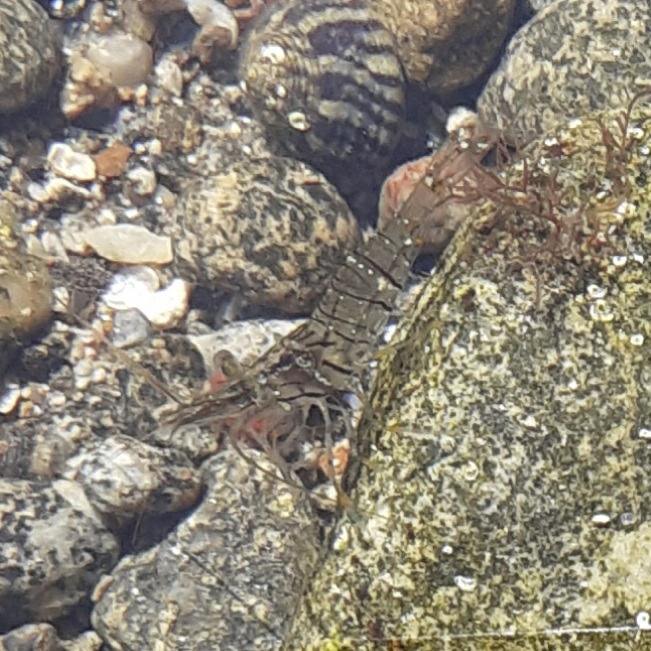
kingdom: Animalia
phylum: Arthropoda
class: Malacostraca
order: Decapoda
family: Palaemonidae
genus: Palaemon
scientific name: Palaemon elegans
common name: Grass prawm
